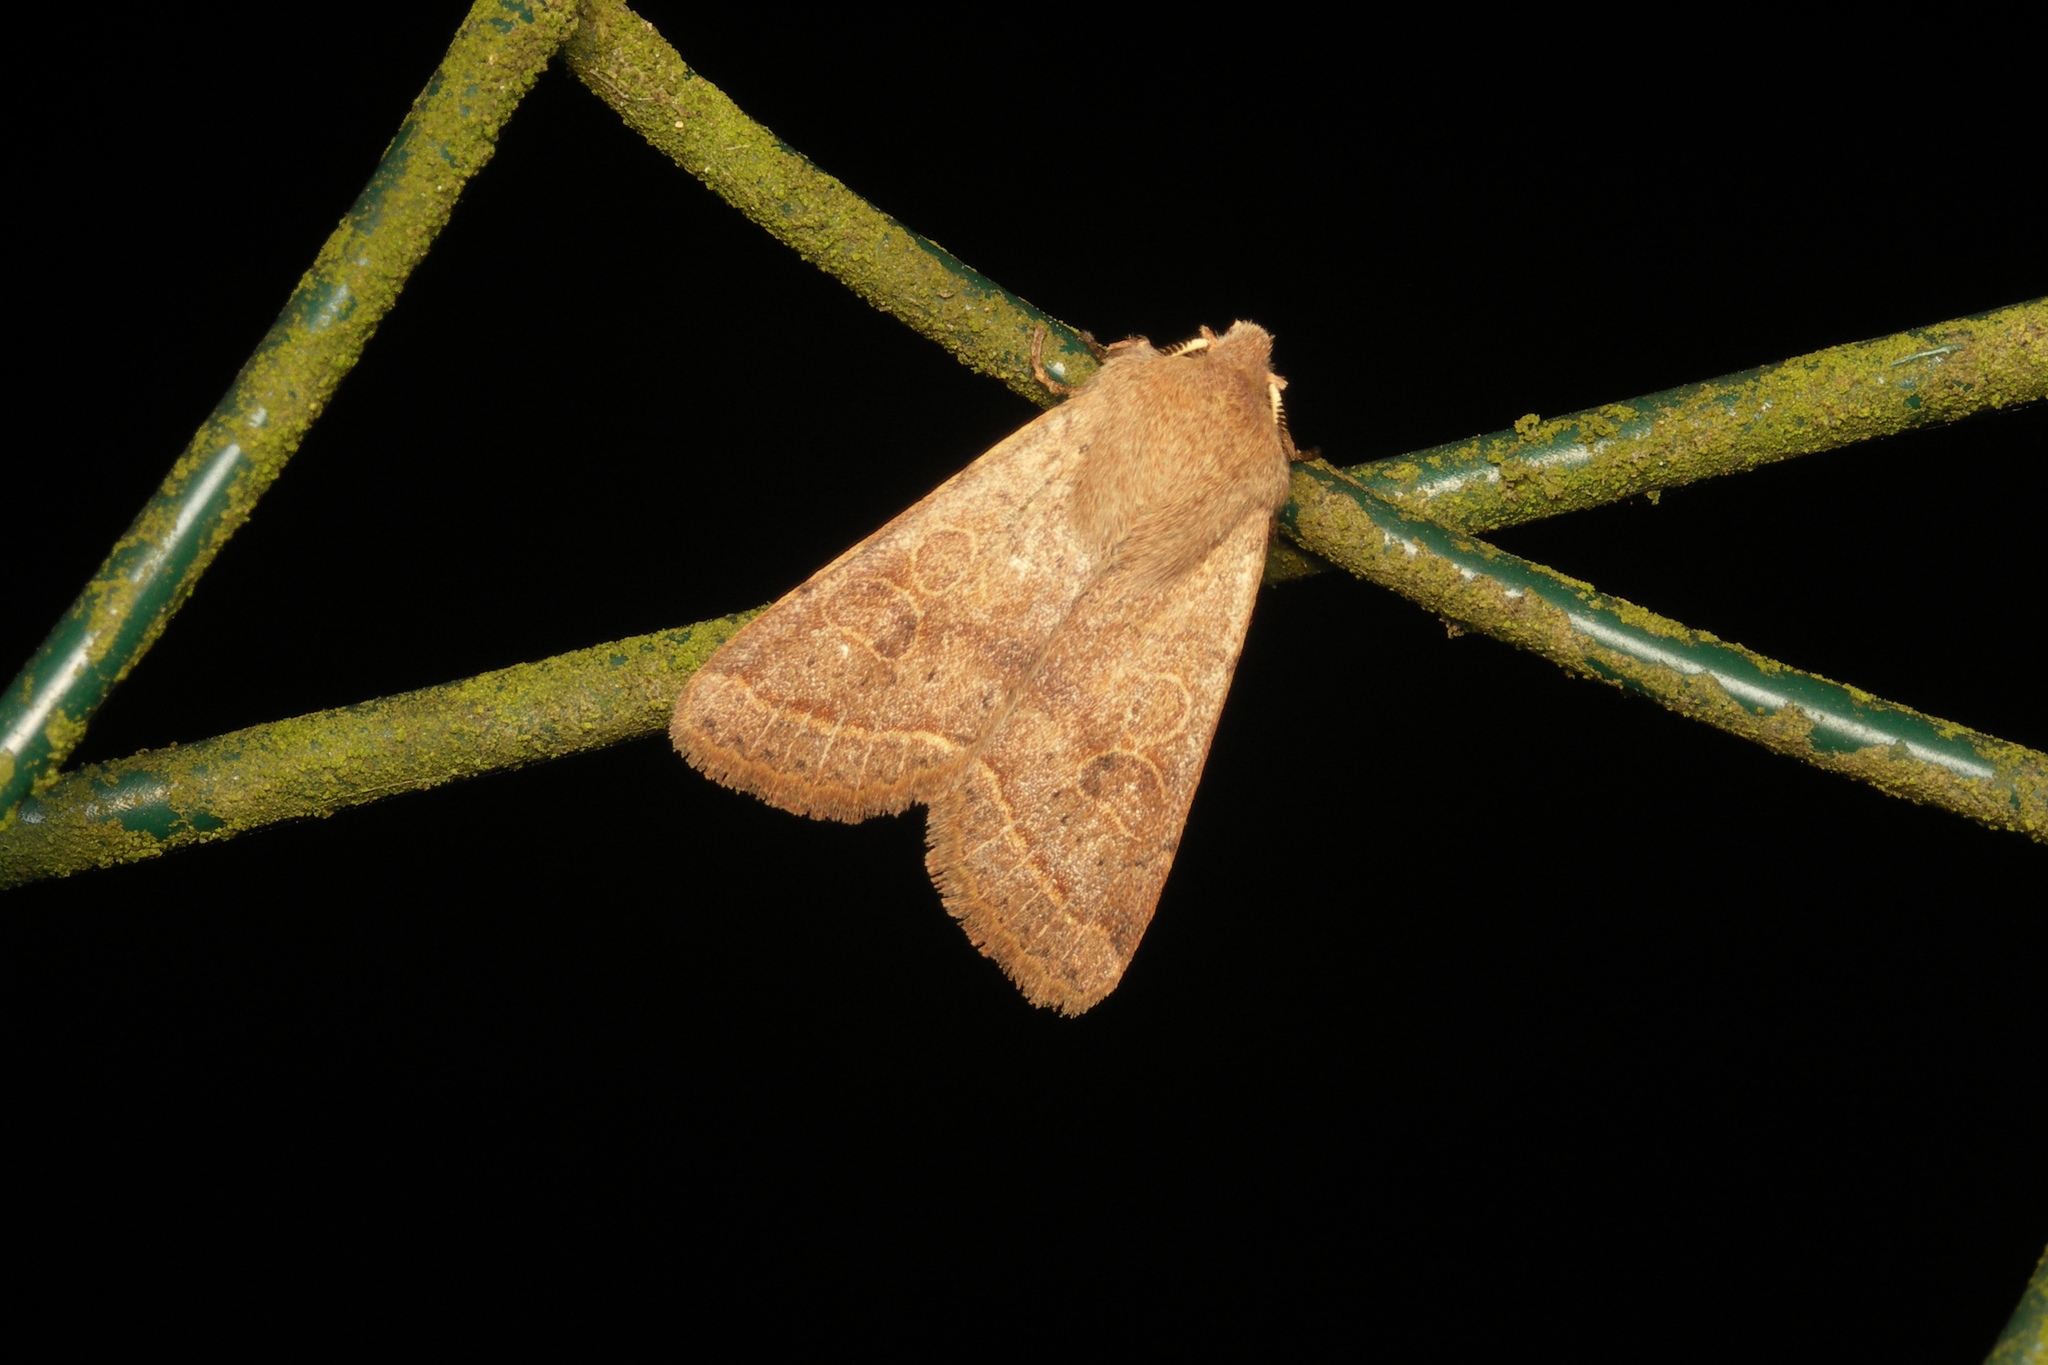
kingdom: Animalia
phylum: Arthropoda
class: Insecta
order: Lepidoptera
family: Noctuidae
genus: Orthosia
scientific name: Orthosia cerasi
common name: Common quaker
